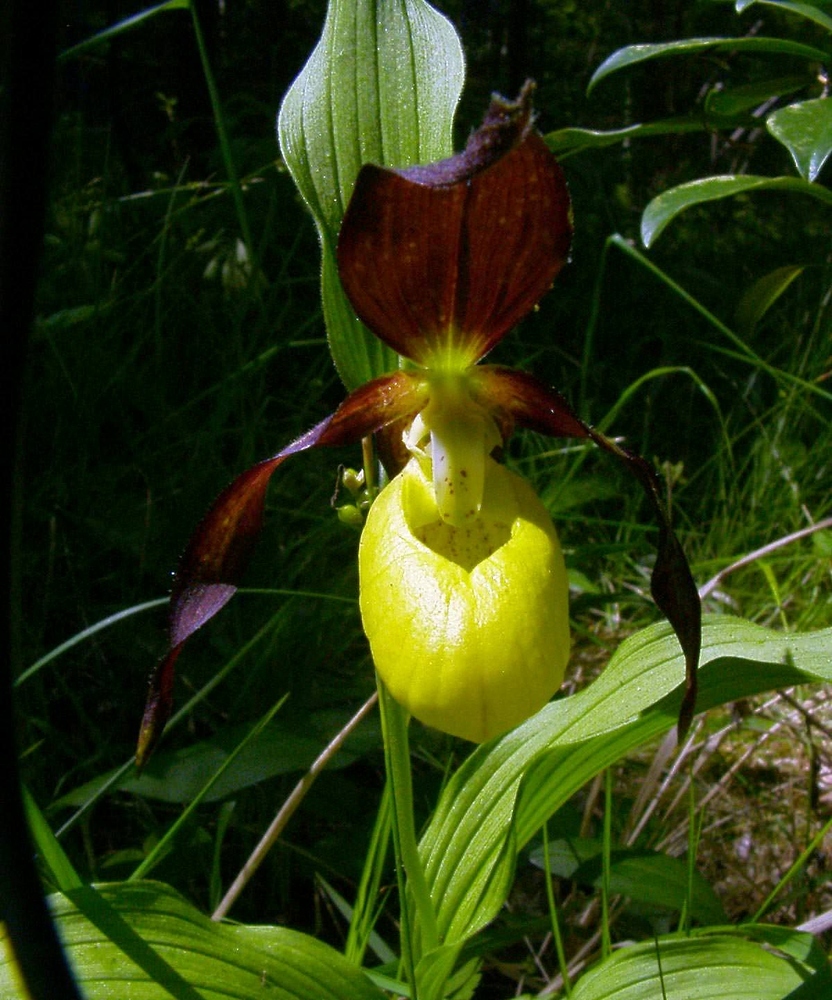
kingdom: Plantae
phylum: Tracheophyta
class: Liliopsida
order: Asparagales
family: Orchidaceae
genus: Cypripedium
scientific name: Cypripedium calceolus
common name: Lady's-slipper
